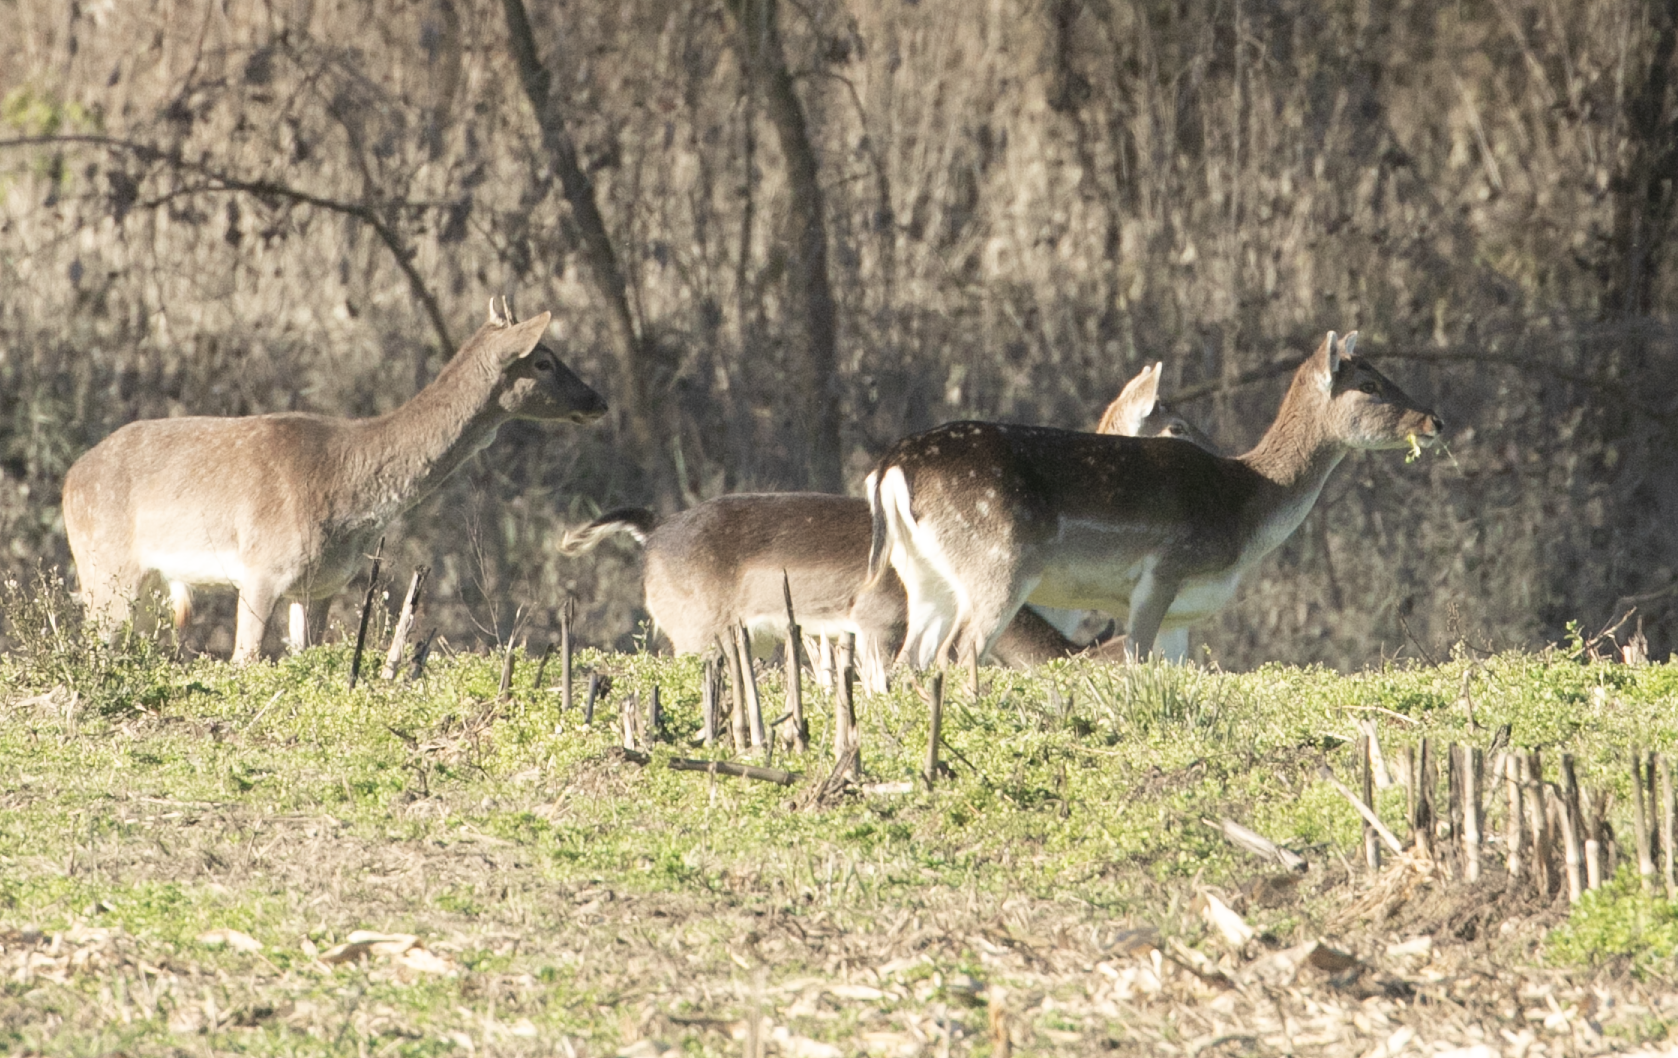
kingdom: Animalia
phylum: Chordata
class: Mammalia
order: Artiodactyla
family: Cervidae
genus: Dama
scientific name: Dama dama
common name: Fallow deer
